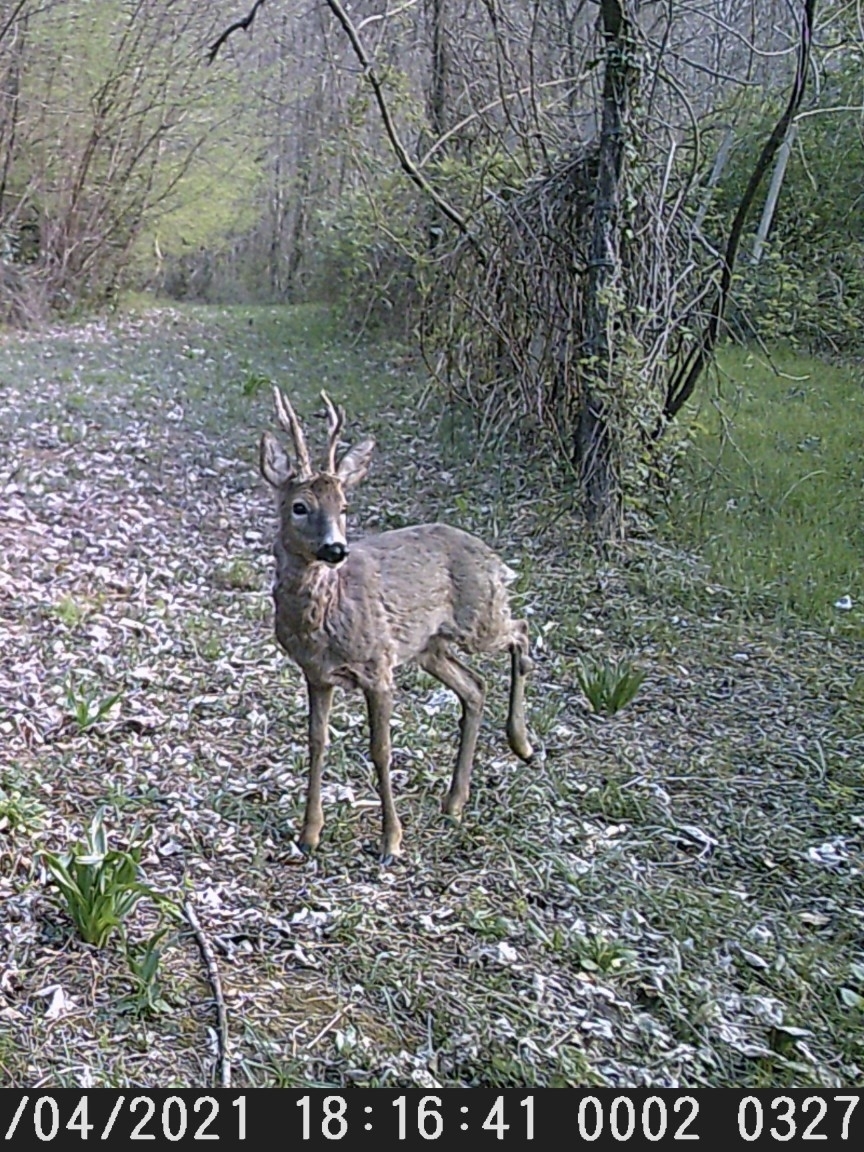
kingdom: Animalia
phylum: Chordata
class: Mammalia
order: Artiodactyla
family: Cervidae
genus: Capreolus
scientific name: Capreolus capreolus
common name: Western roe deer
